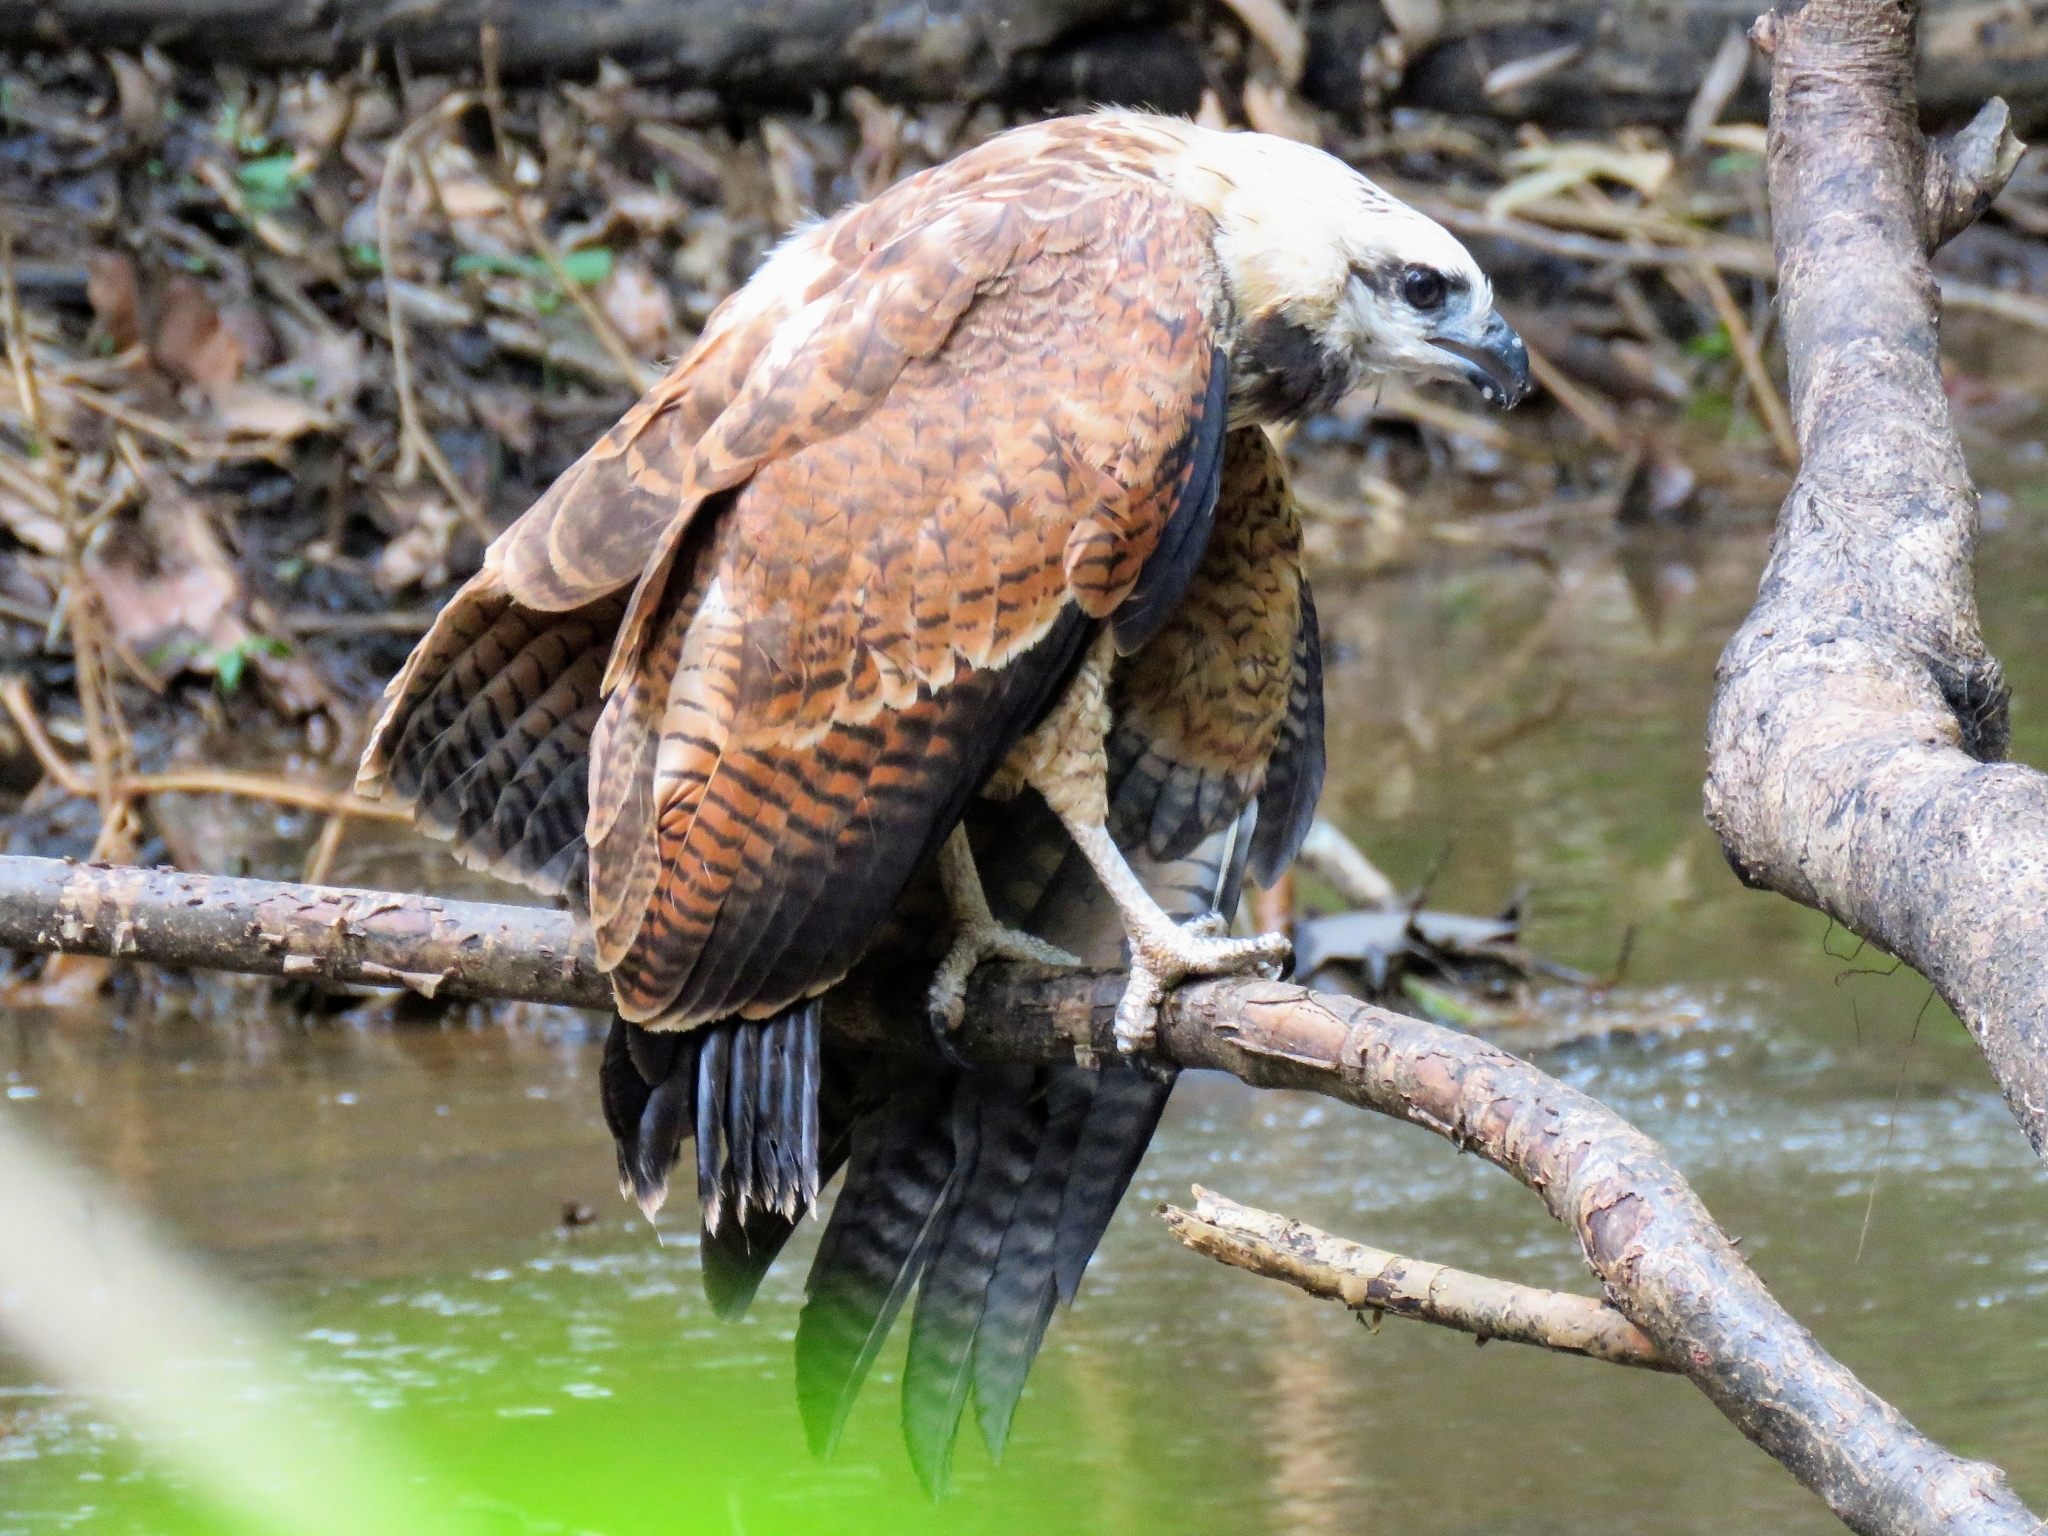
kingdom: Animalia
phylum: Chordata
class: Aves
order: Accipitriformes
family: Accipitridae
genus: Busarellus
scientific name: Busarellus nigricollis
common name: Black-collared hawk
